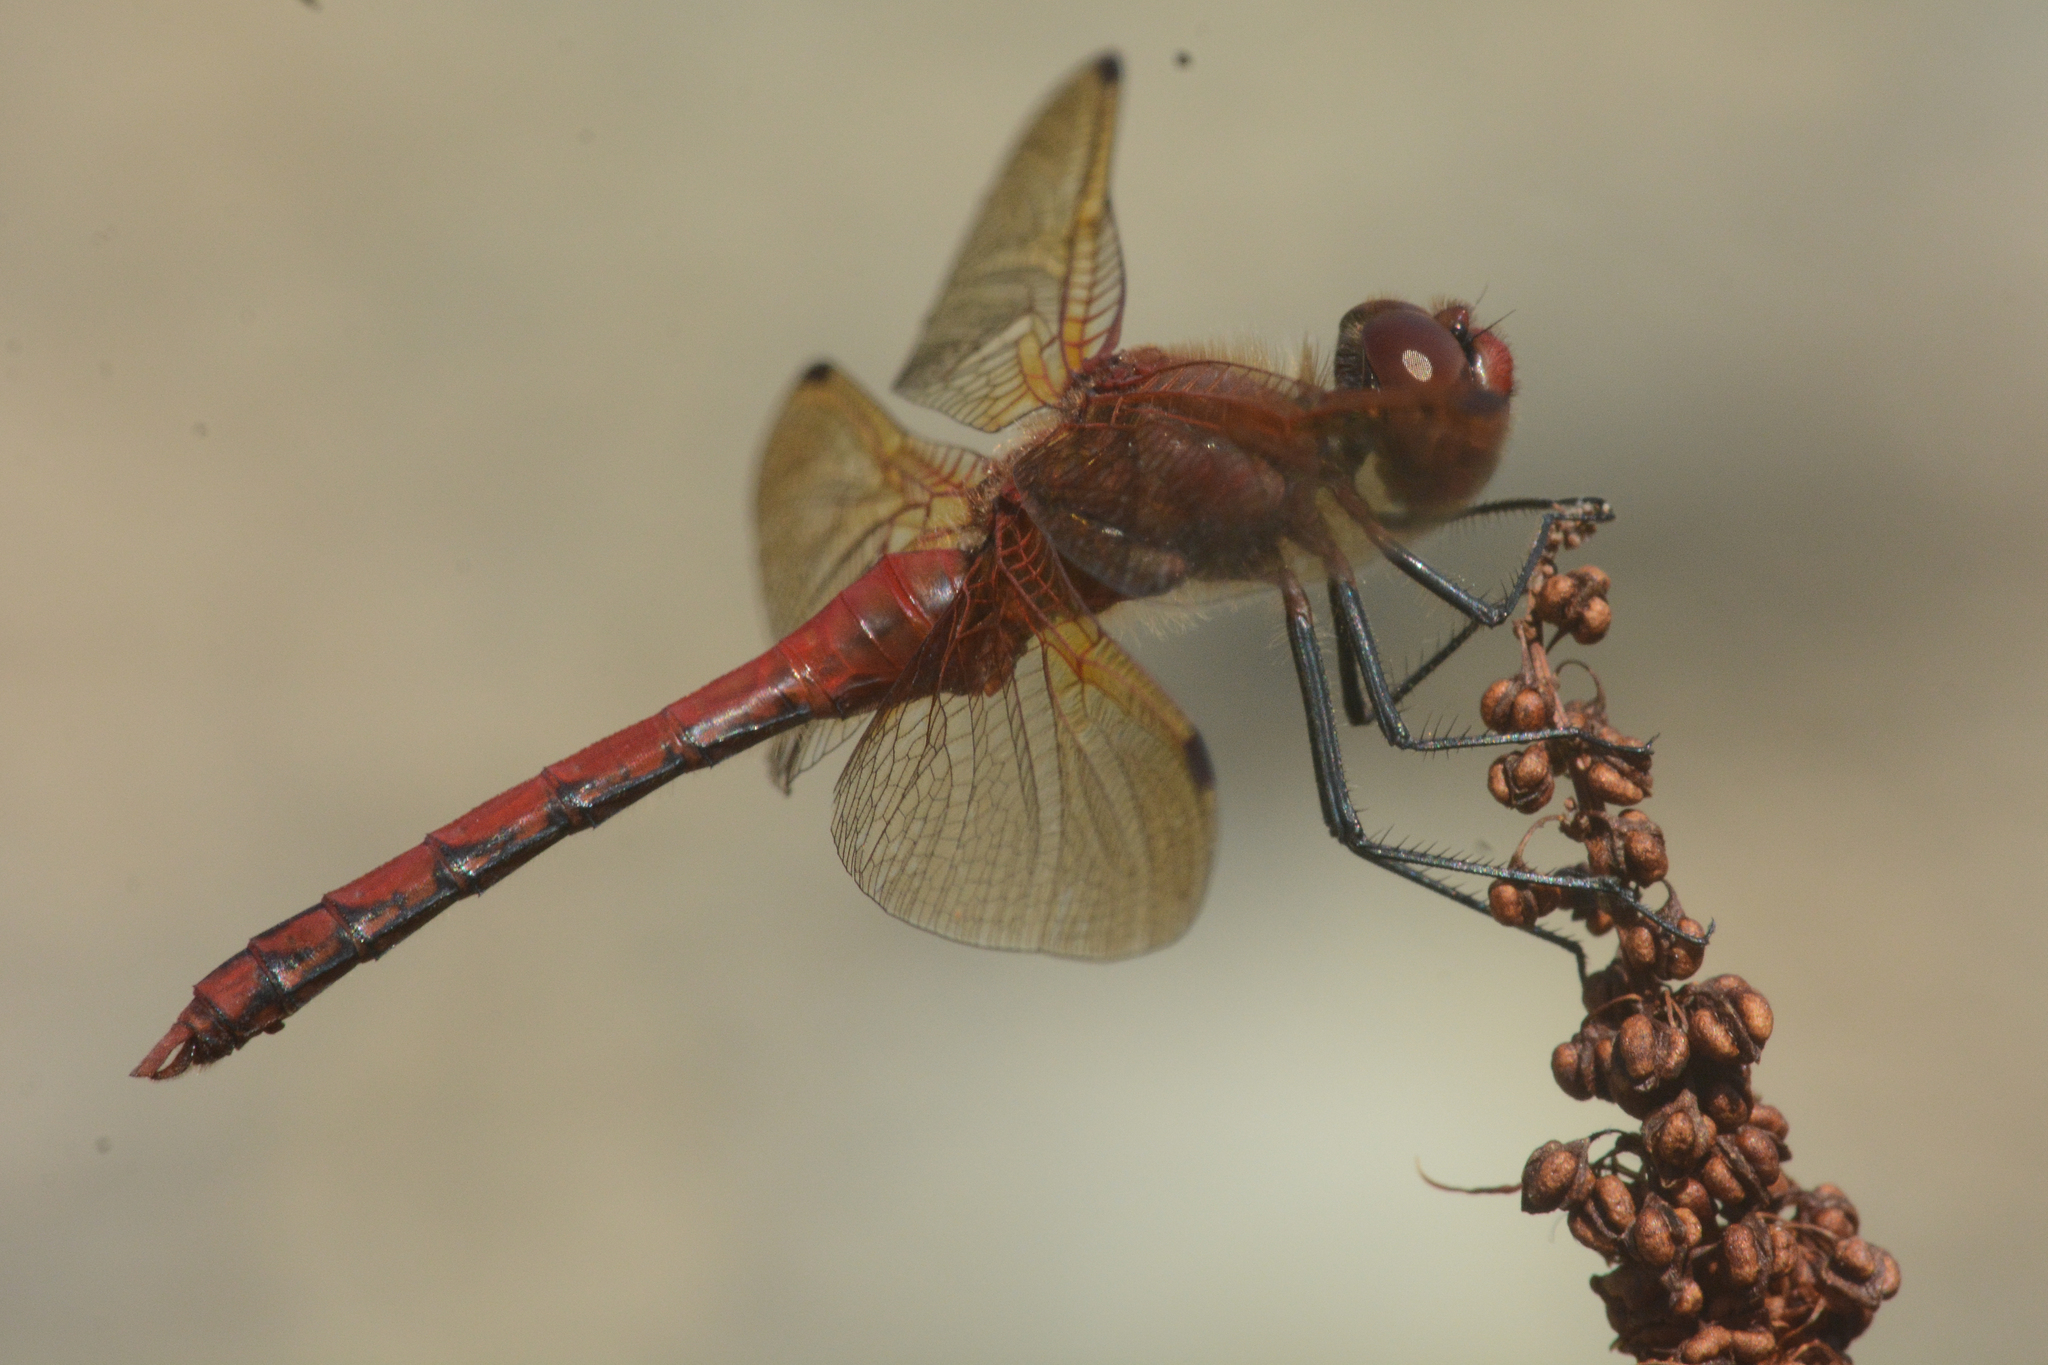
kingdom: Animalia
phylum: Arthropoda
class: Insecta
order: Odonata
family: Libellulidae
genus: Sympetrum
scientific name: Sympetrum madidum
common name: Red-veined meadowhawk
